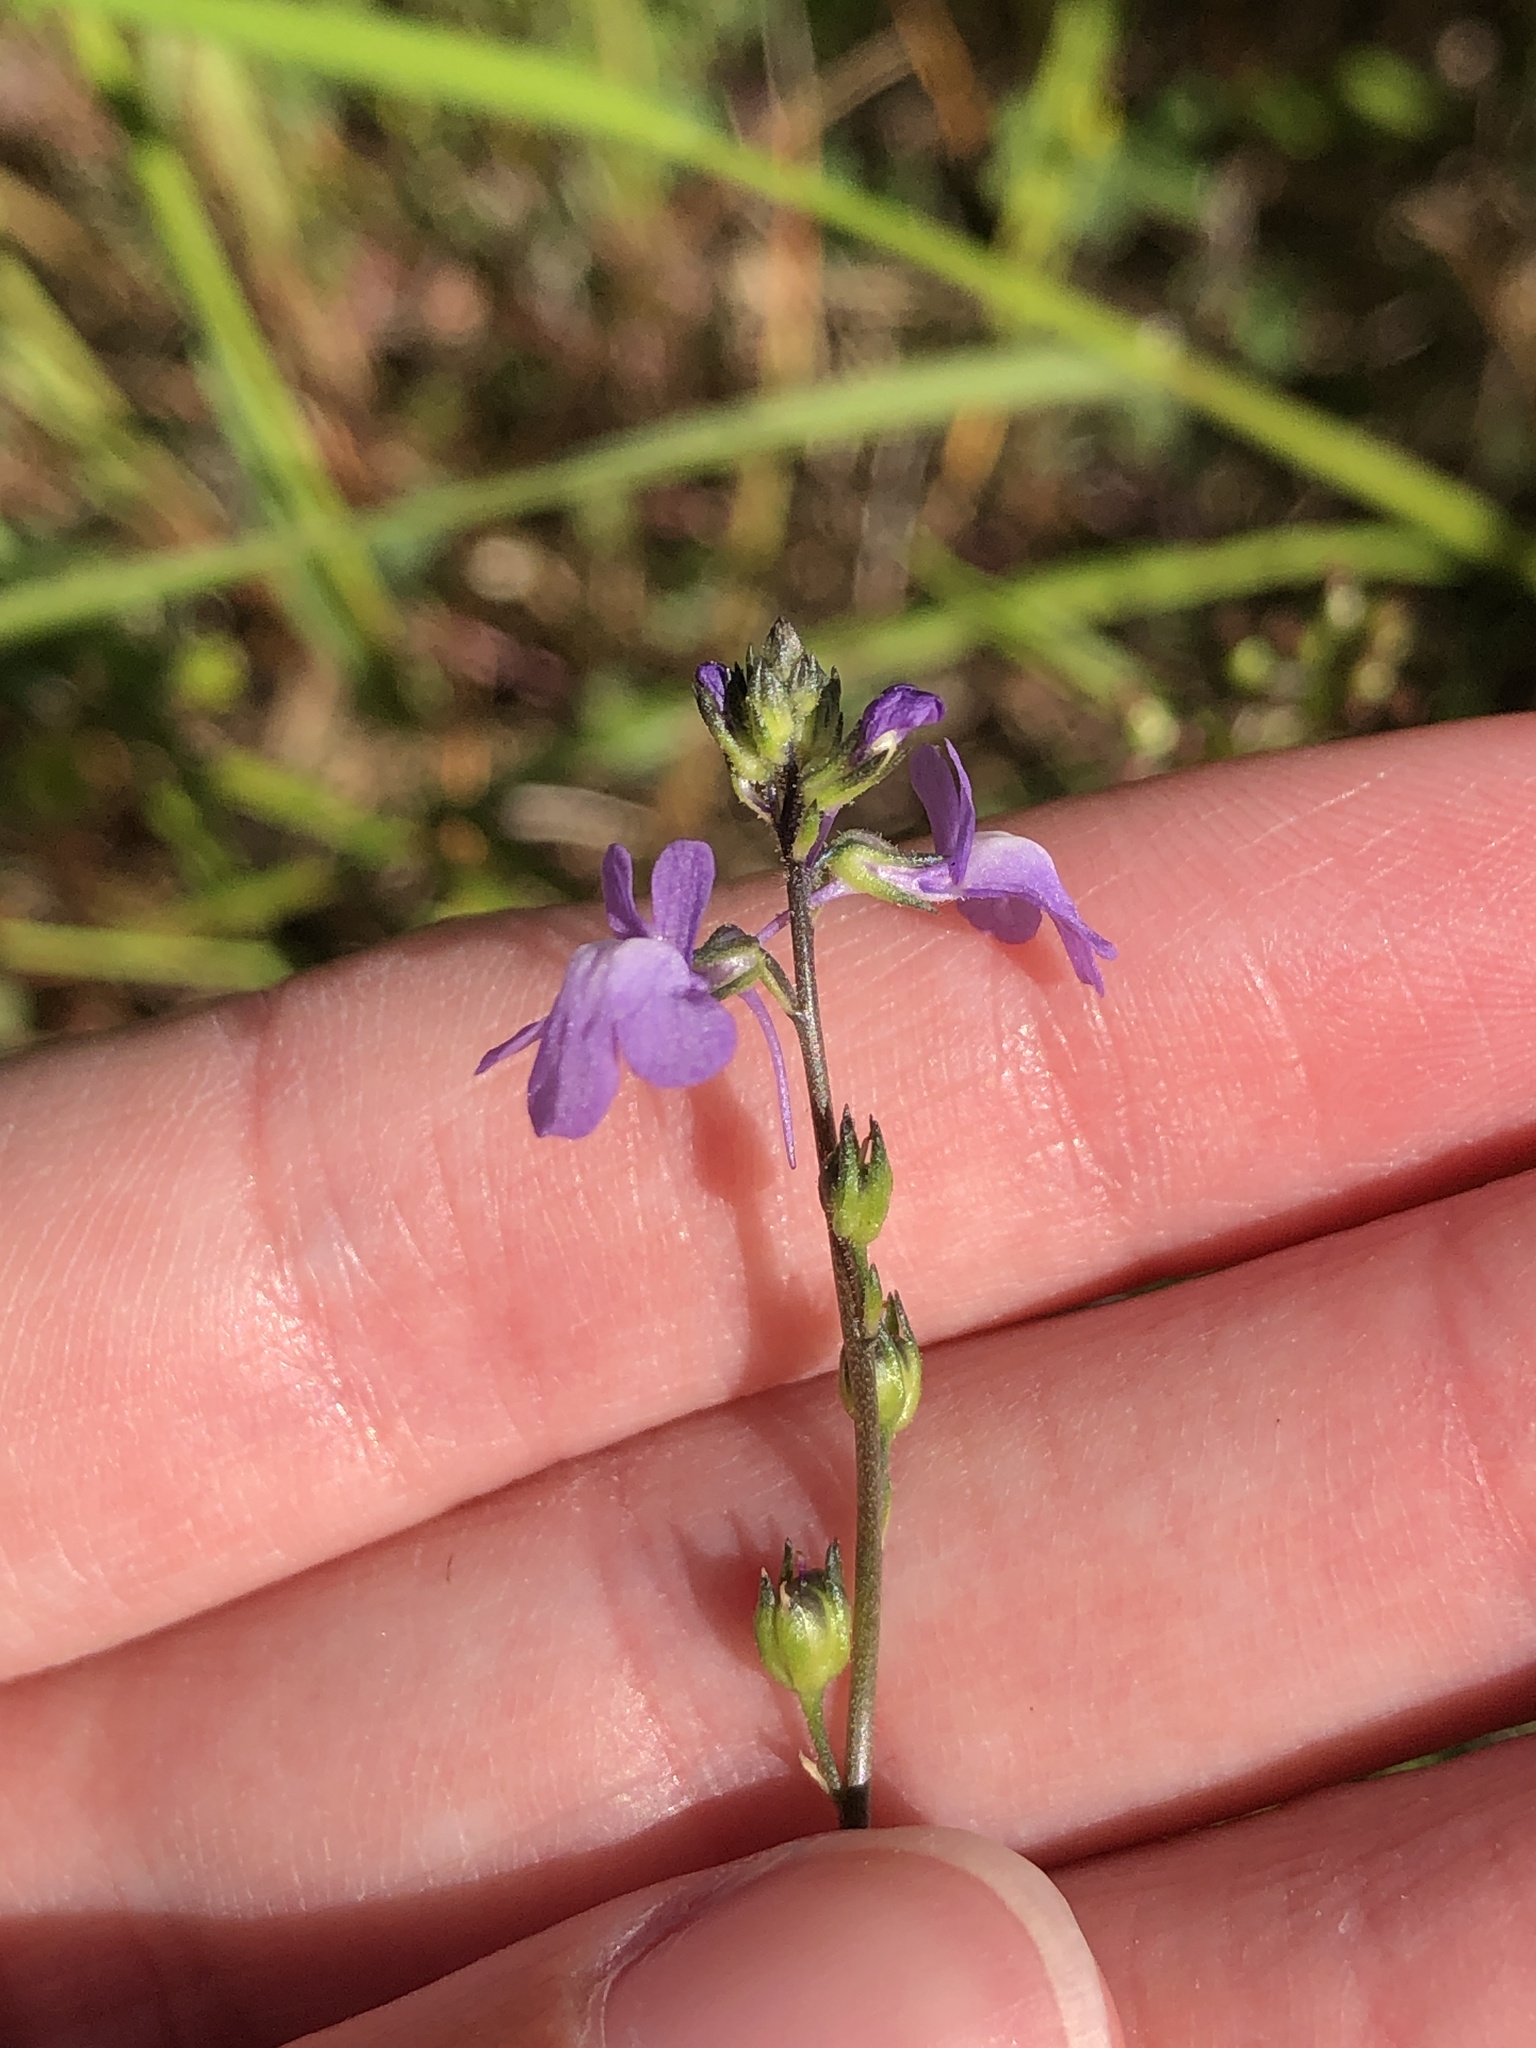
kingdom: Plantae
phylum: Tracheophyta
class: Magnoliopsida
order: Lamiales
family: Plantaginaceae
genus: Nuttallanthus
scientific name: Nuttallanthus canadensis
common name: Blue toadflax
